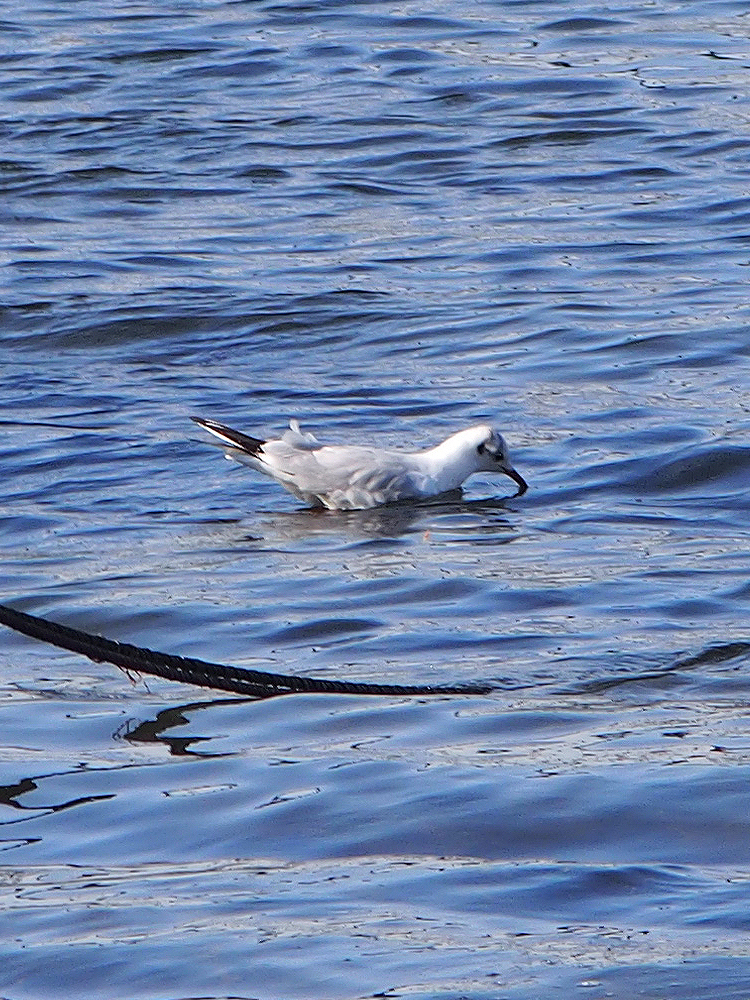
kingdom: Animalia
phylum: Chordata
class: Aves
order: Charadriiformes
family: Laridae
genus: Chroicocephalus
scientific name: Chroicocephalus ridibundus
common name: Black-headed gull
